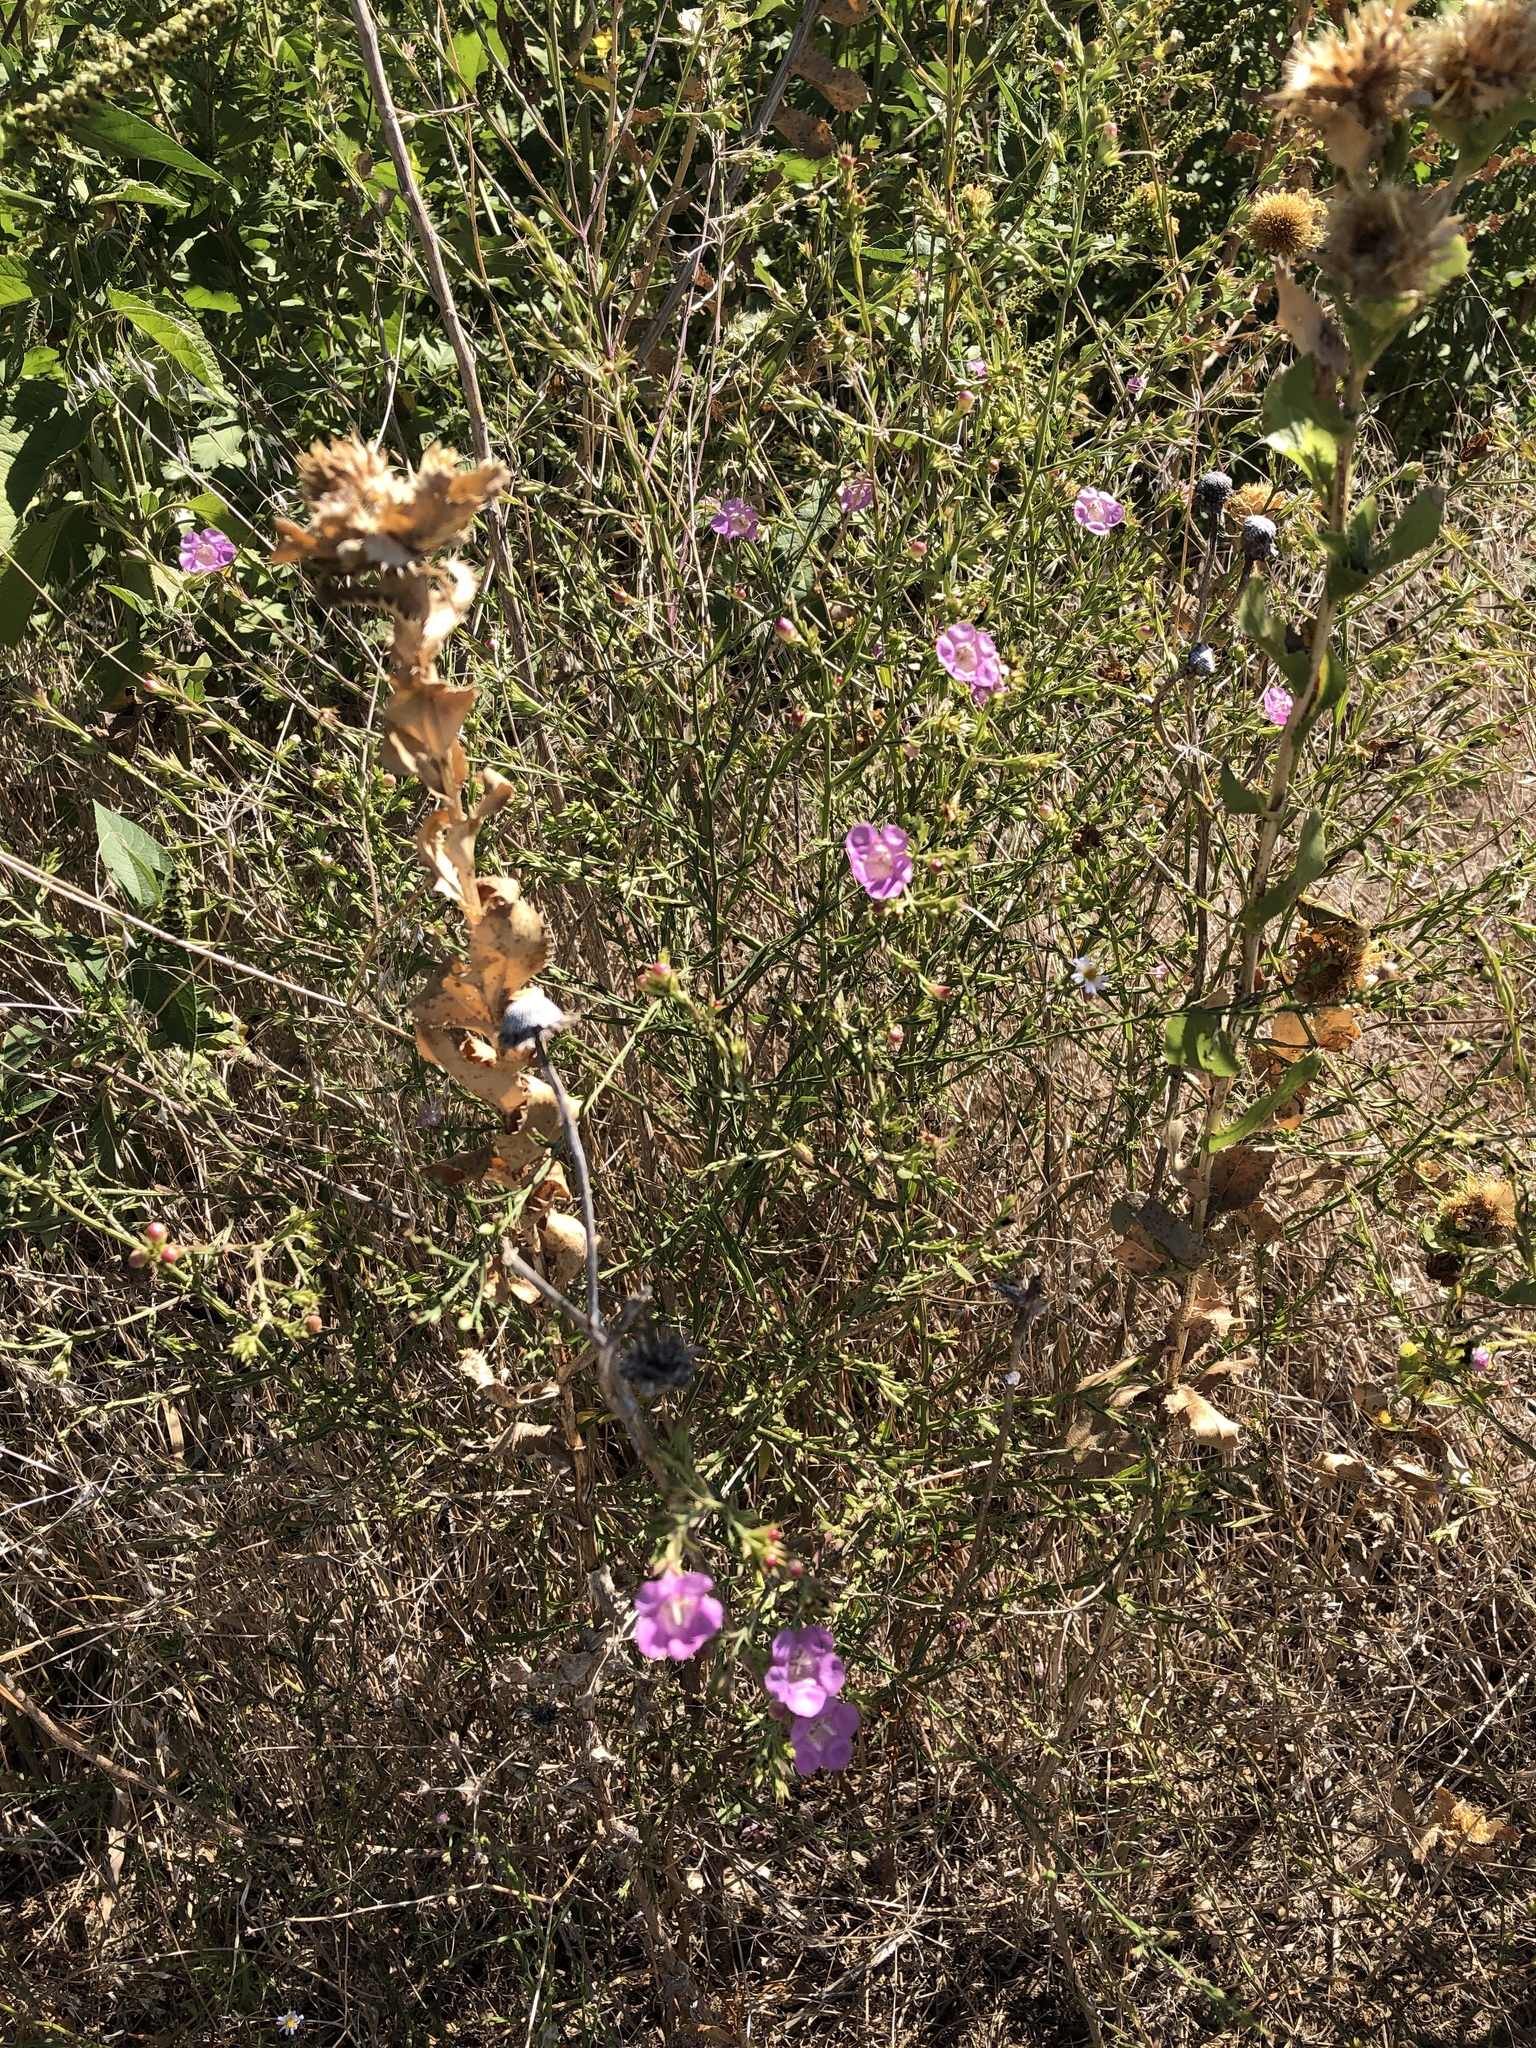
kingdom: Plantae
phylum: Tracheophyta
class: Magnoliopsida
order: Lamiales
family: Orobanchaceae
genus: Agalinis
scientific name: Agalinis heterophylla
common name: Prairie agalinis
